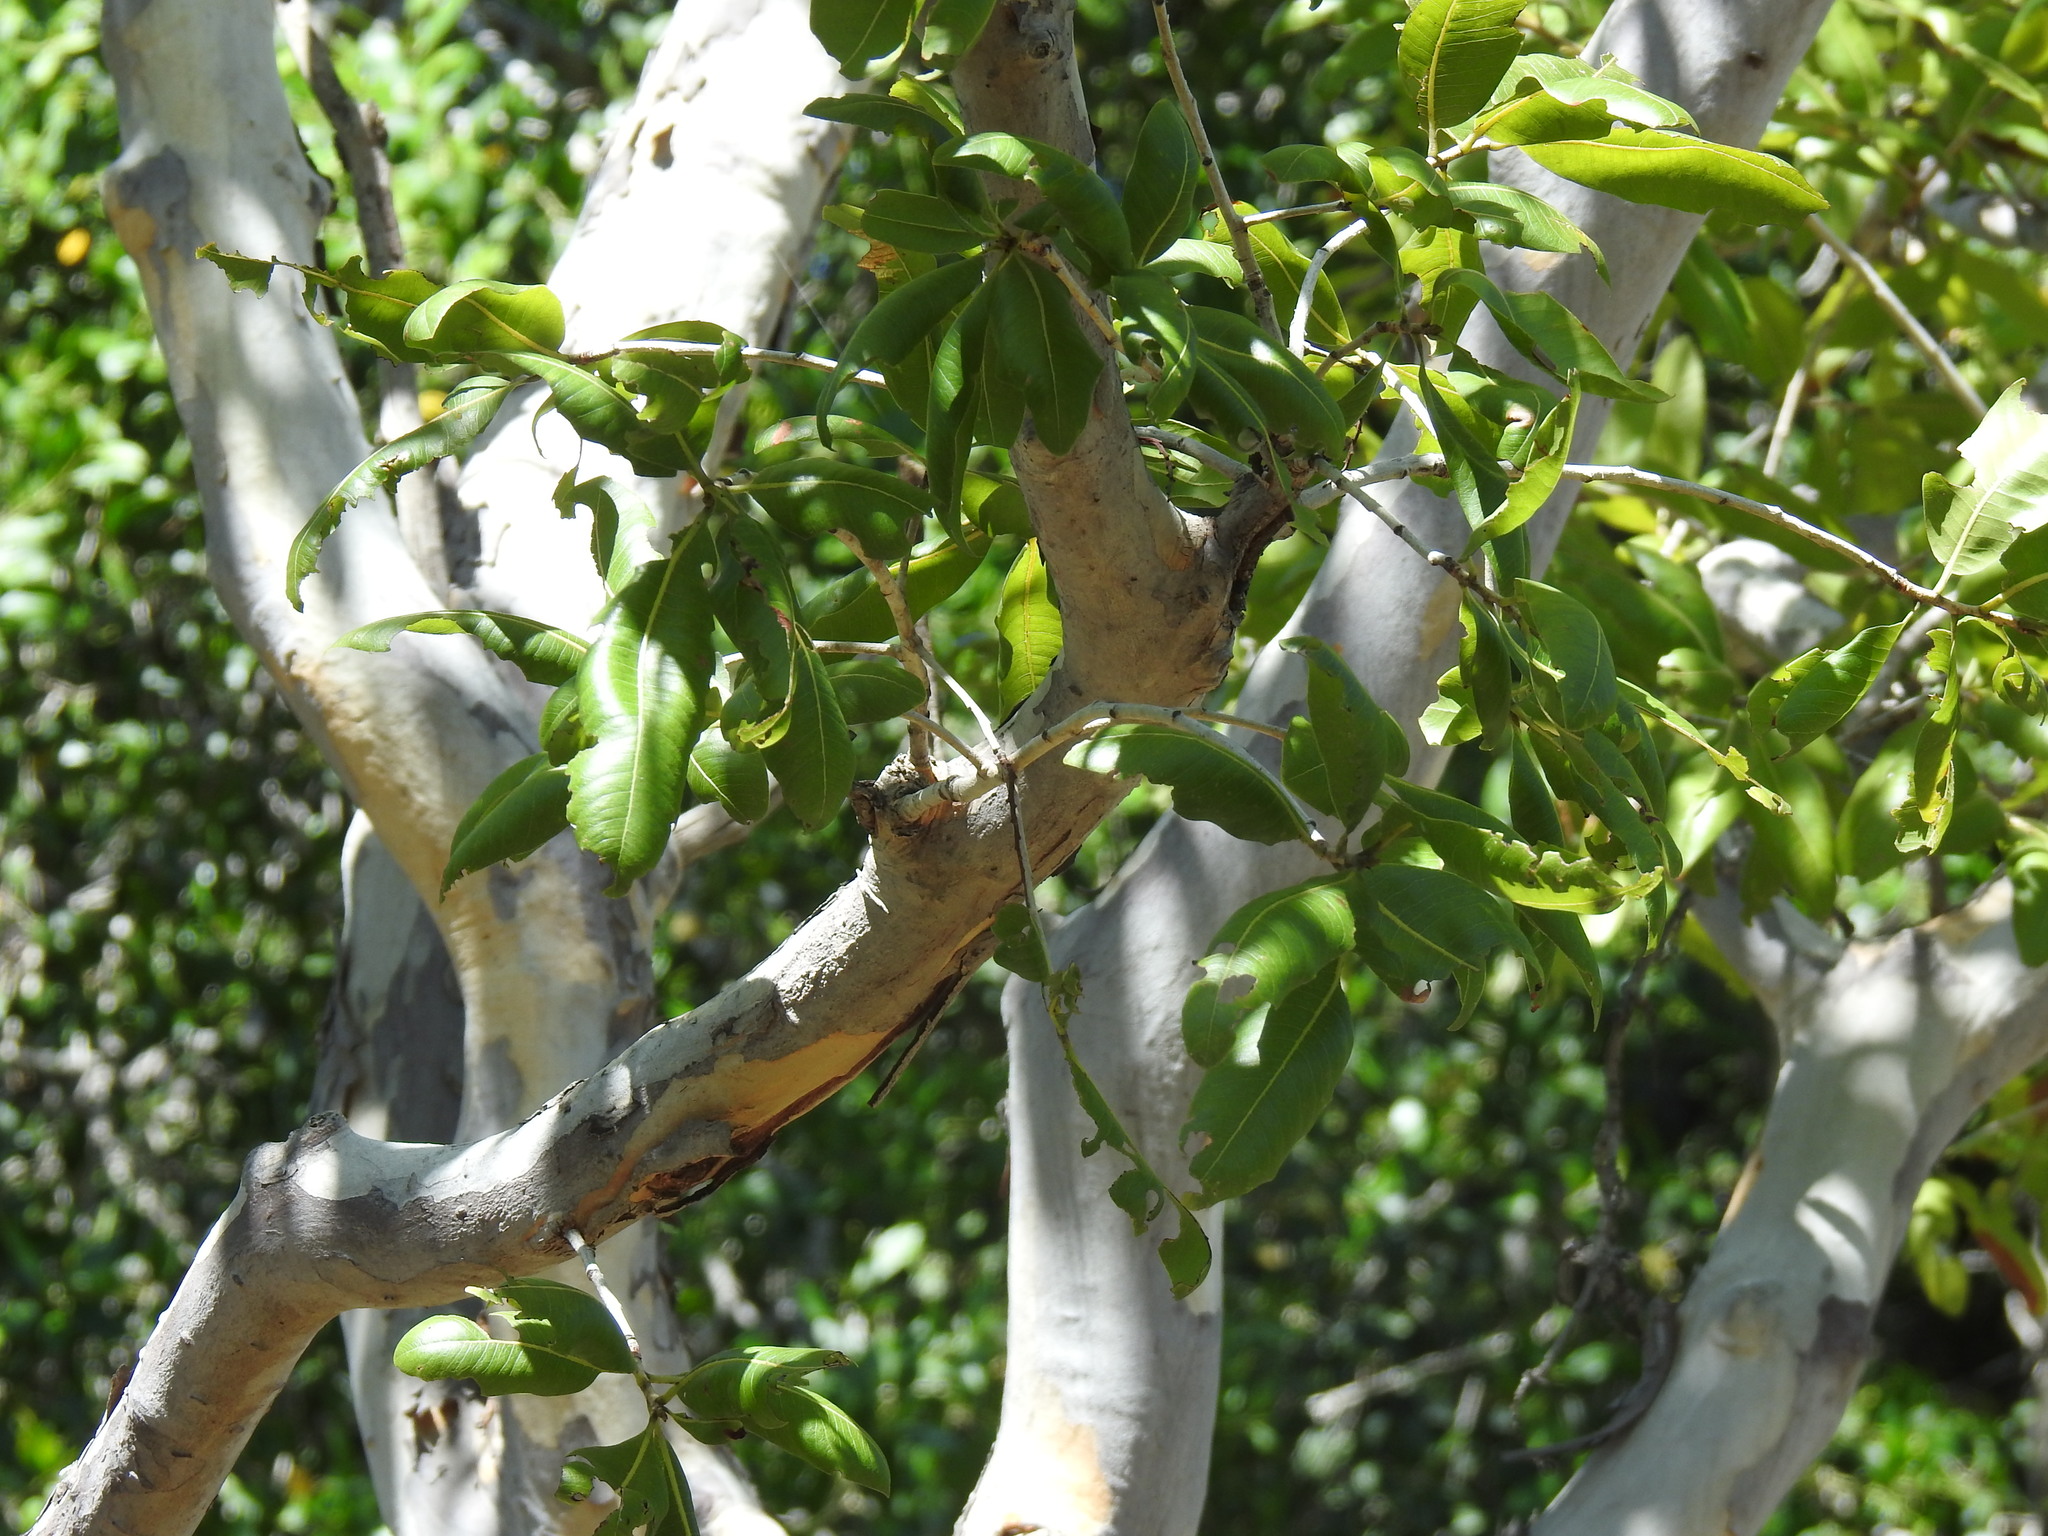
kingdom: Plantae
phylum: Tracheophyta
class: Magnoliopsida
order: Malpighiales
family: Ochnaceae
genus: Ochna
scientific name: Ochna pulchra
